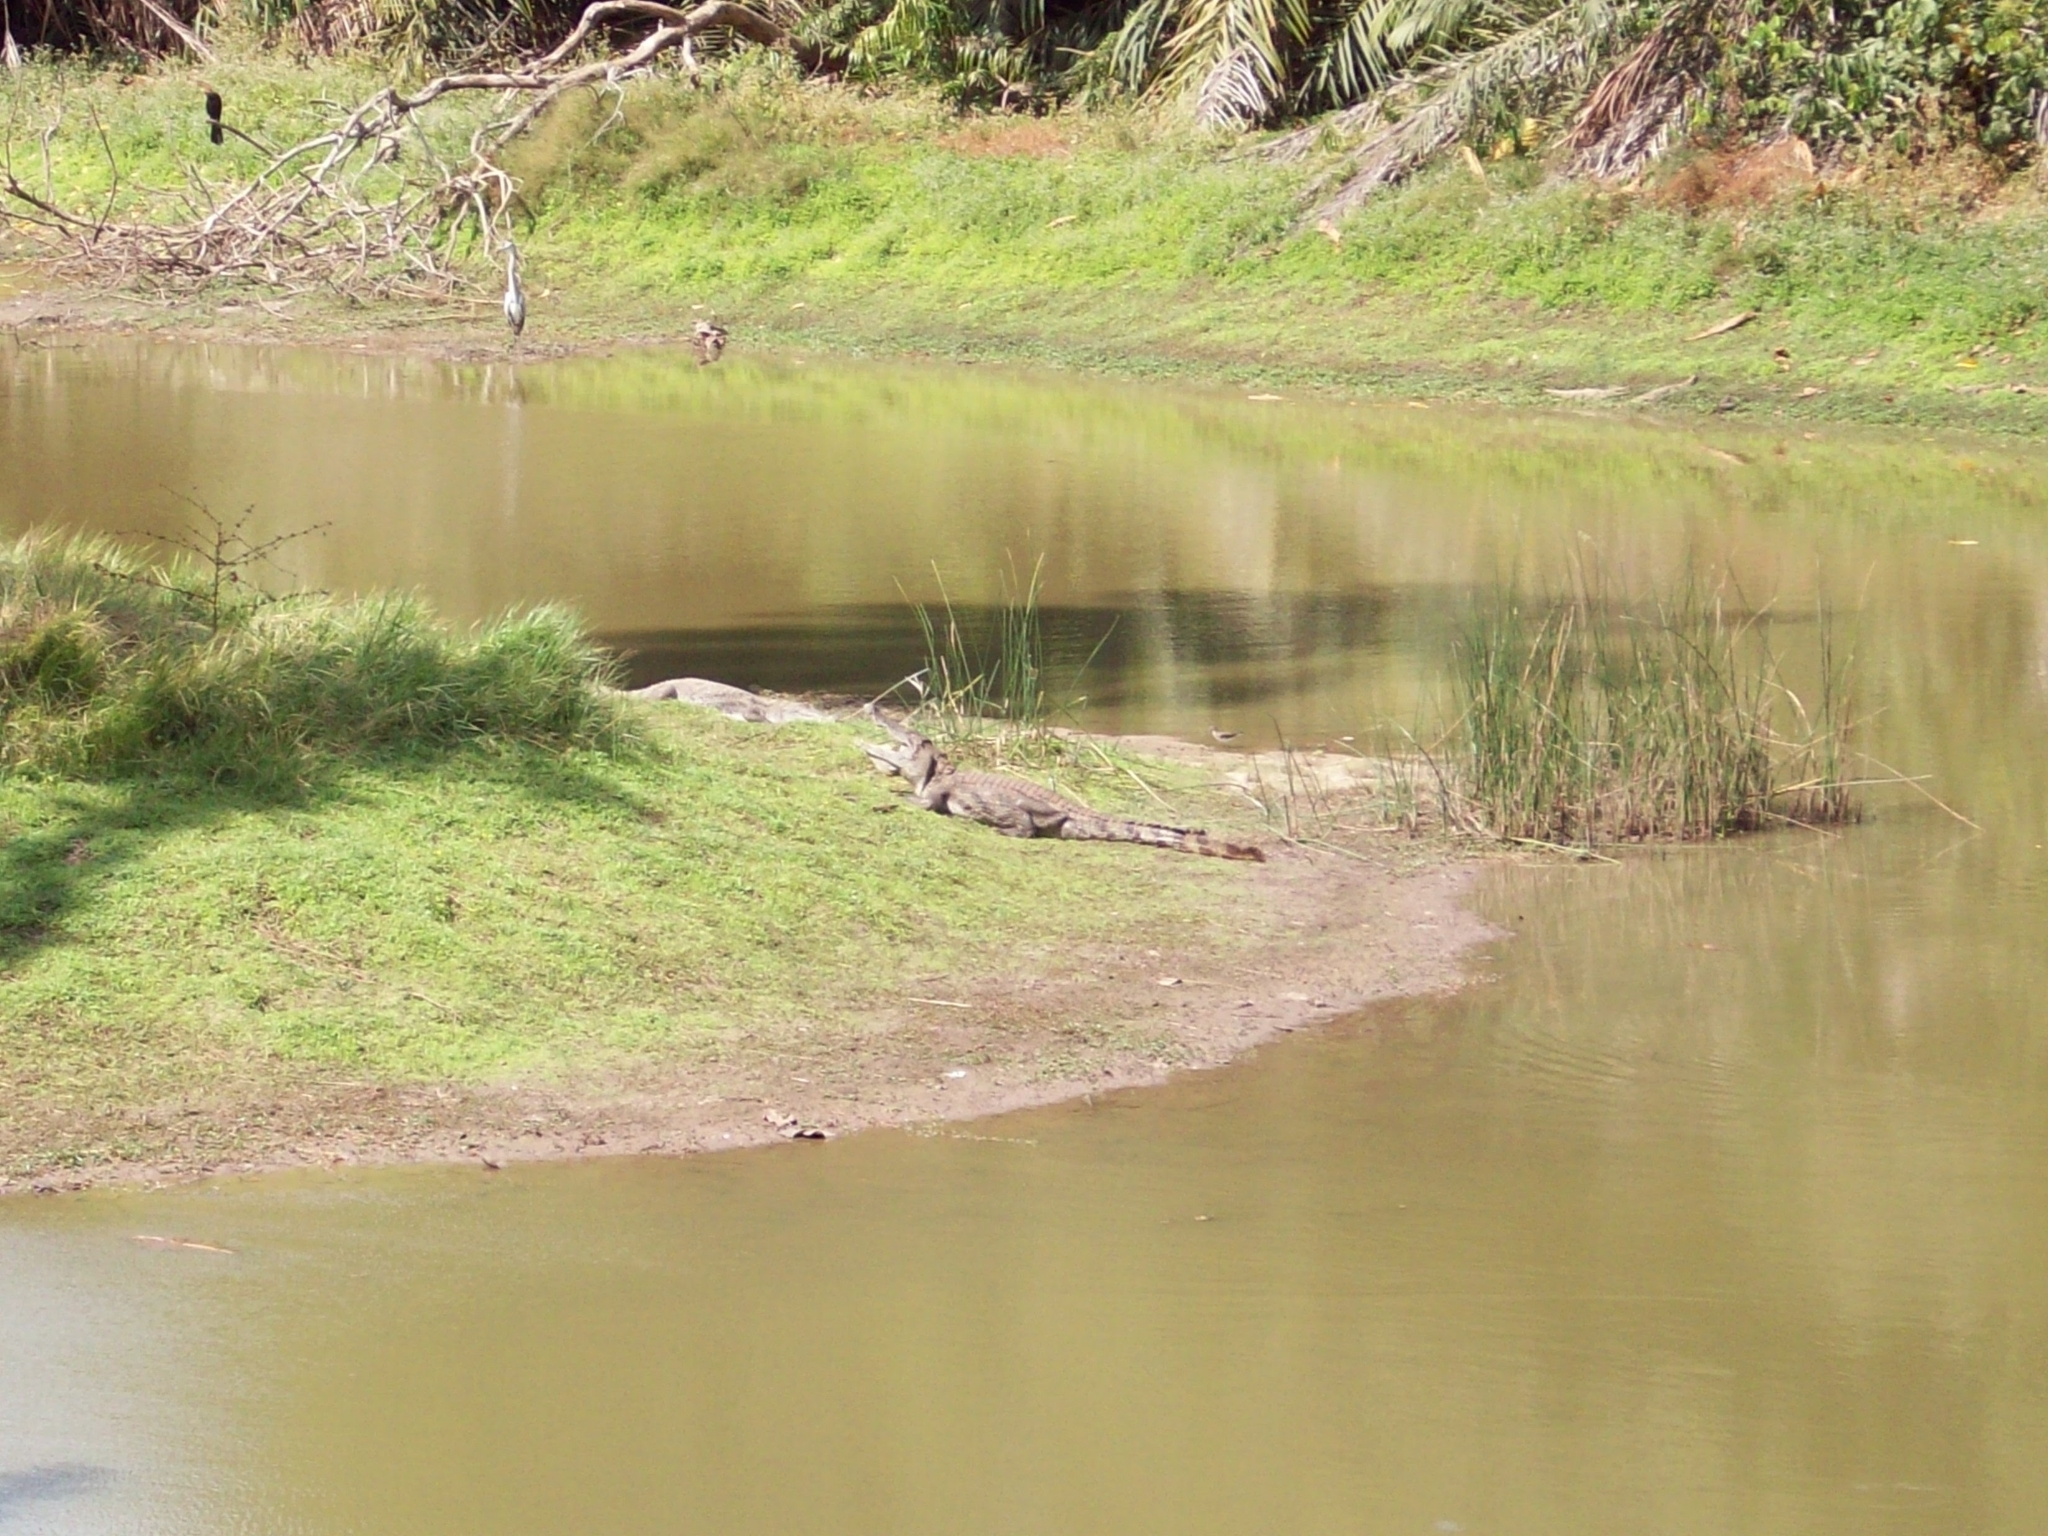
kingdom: Animalia
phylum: Chordata
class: Crocodylia
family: Crocodylidae
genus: Crocodylus
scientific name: Crocodylus suchus
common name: West african crocodile
